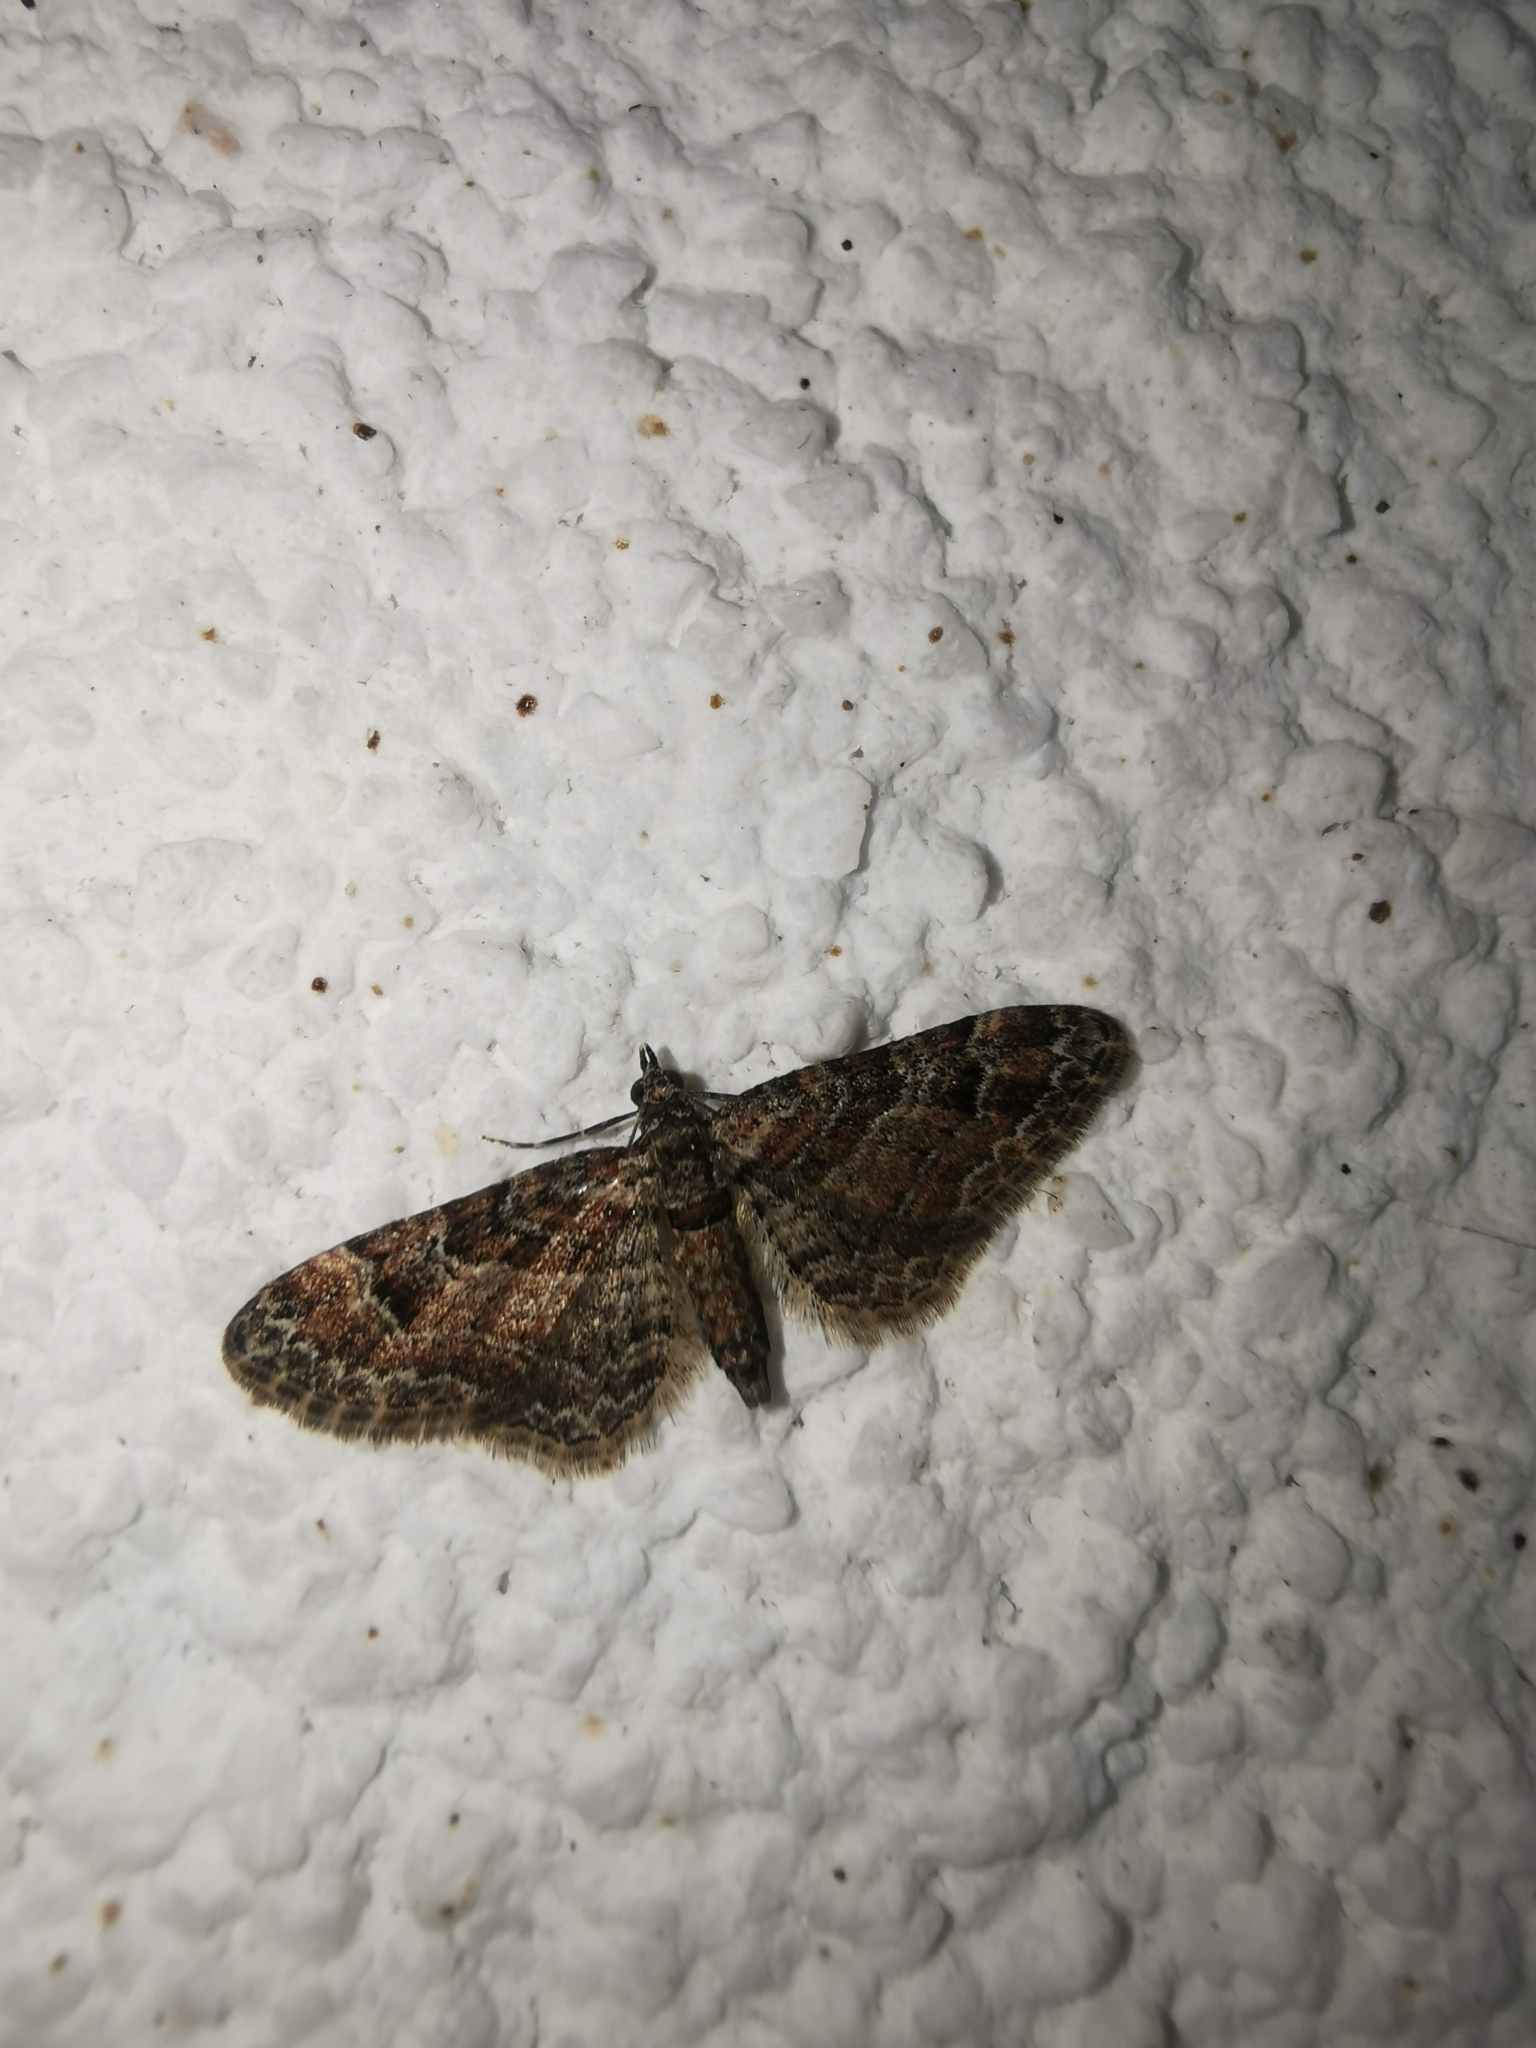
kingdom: Animalia
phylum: Arthropoda
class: Insecta
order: Lepidoptera
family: Geometridae
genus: Gymnoscelis
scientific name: Gymnoscelis rufifasciata
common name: Double-striped pug
